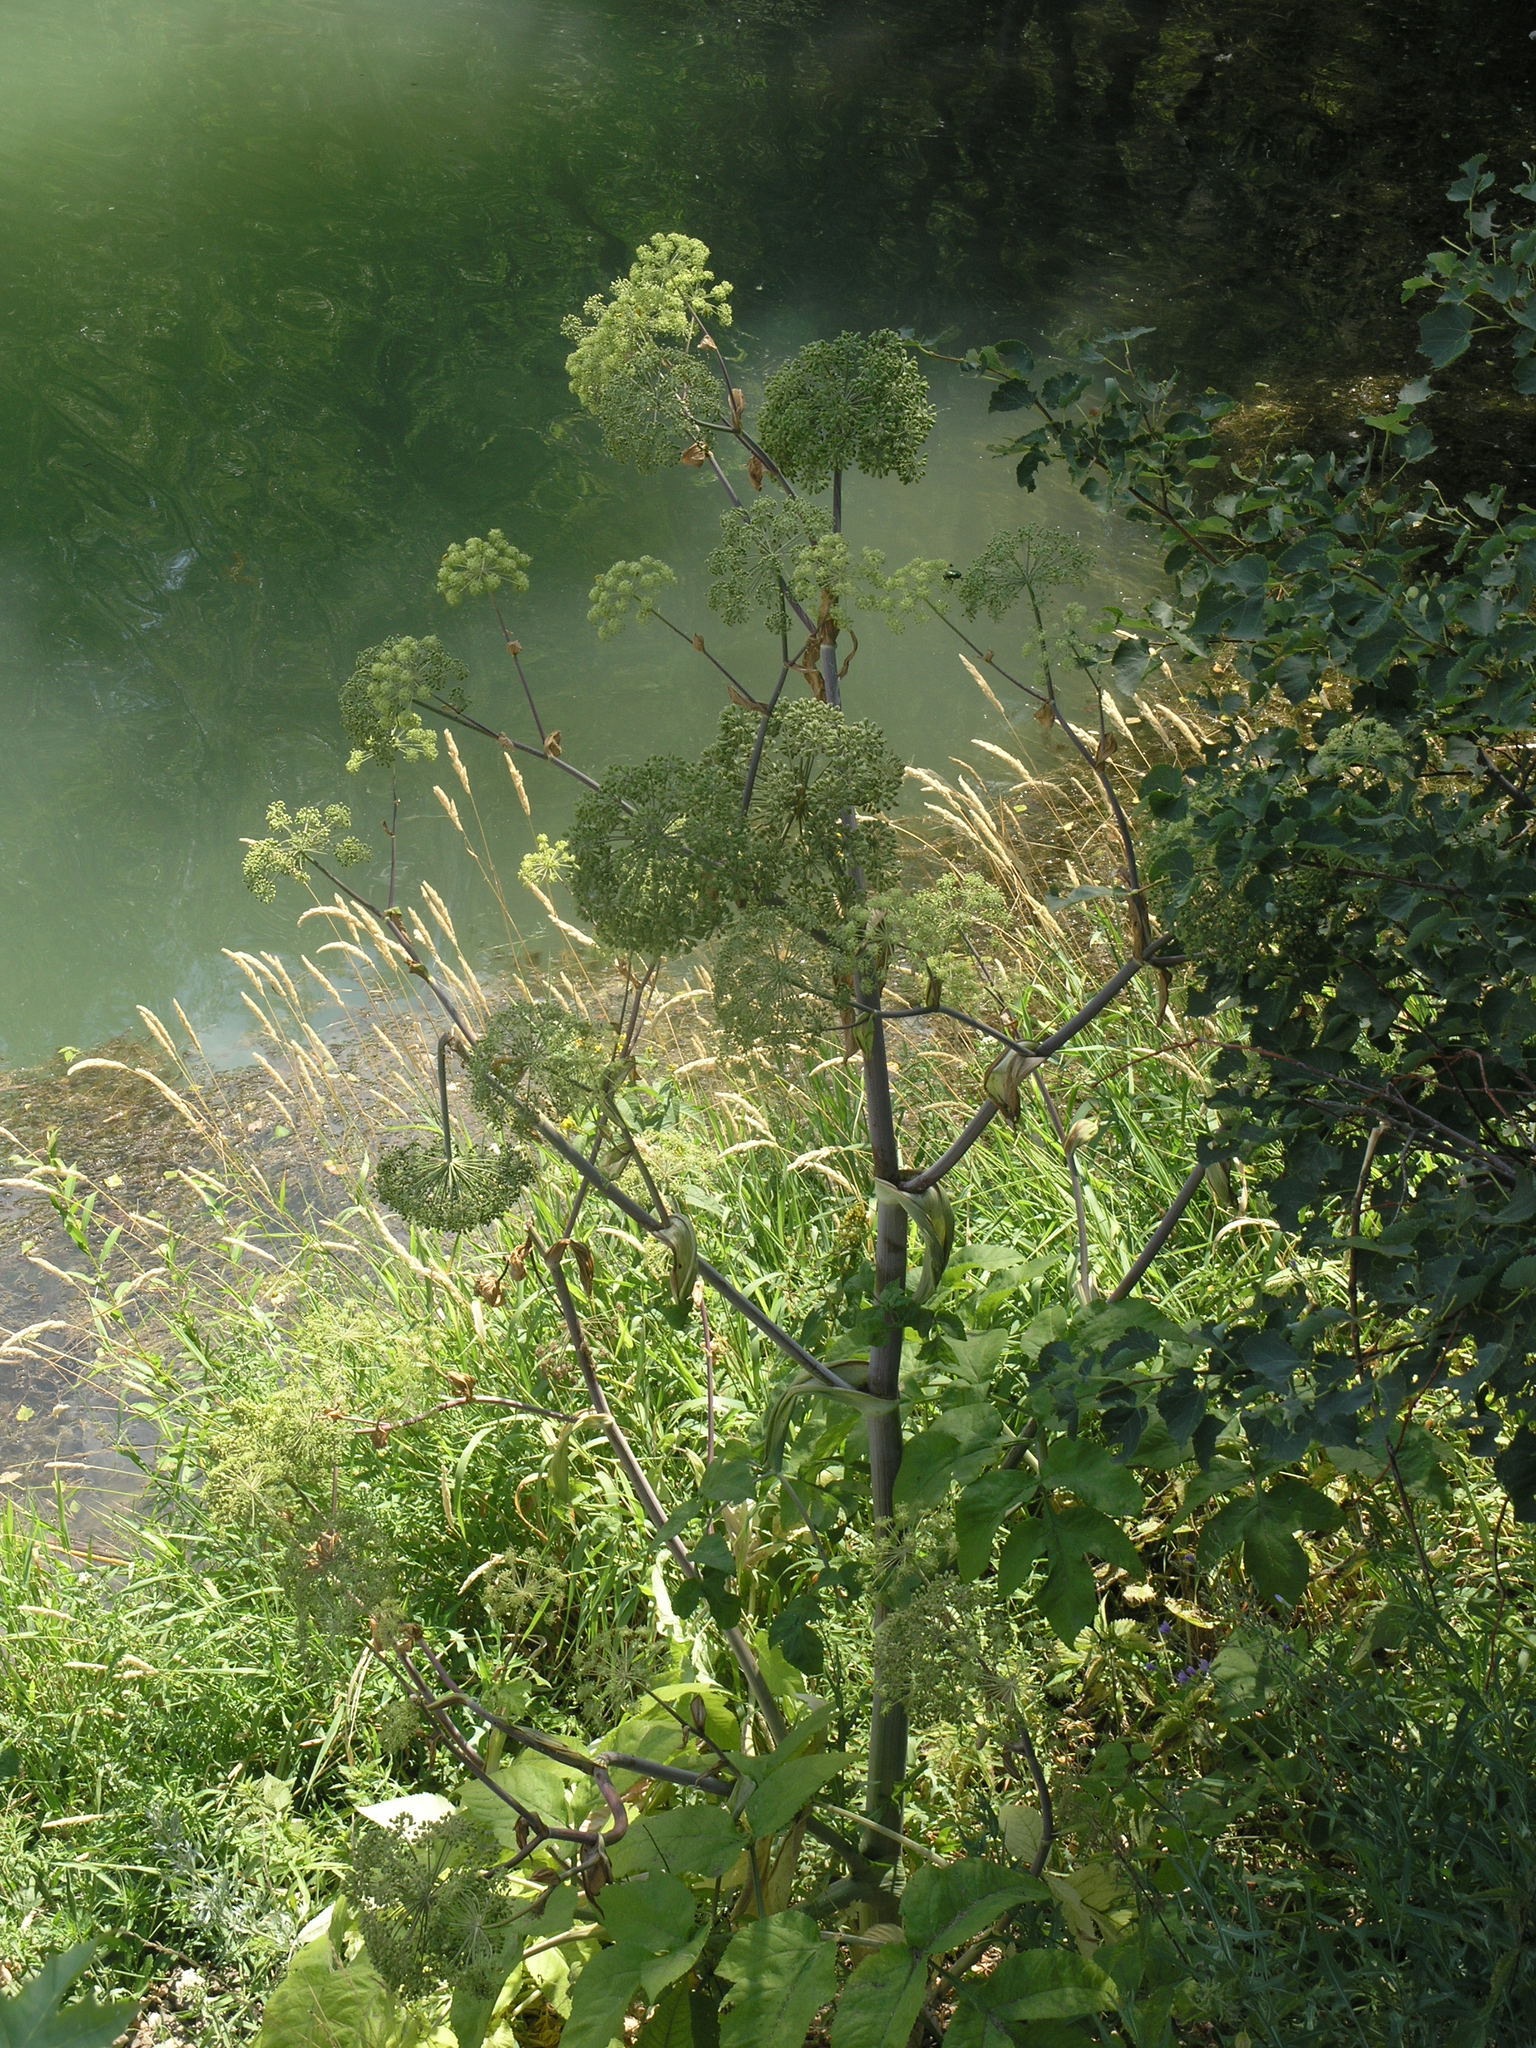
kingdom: Plantae
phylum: Tracheophyta
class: Magnoliopsida
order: Apiales
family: Apiaceae
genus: Angelica
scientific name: Angelica archangelica
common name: Garden angelica
